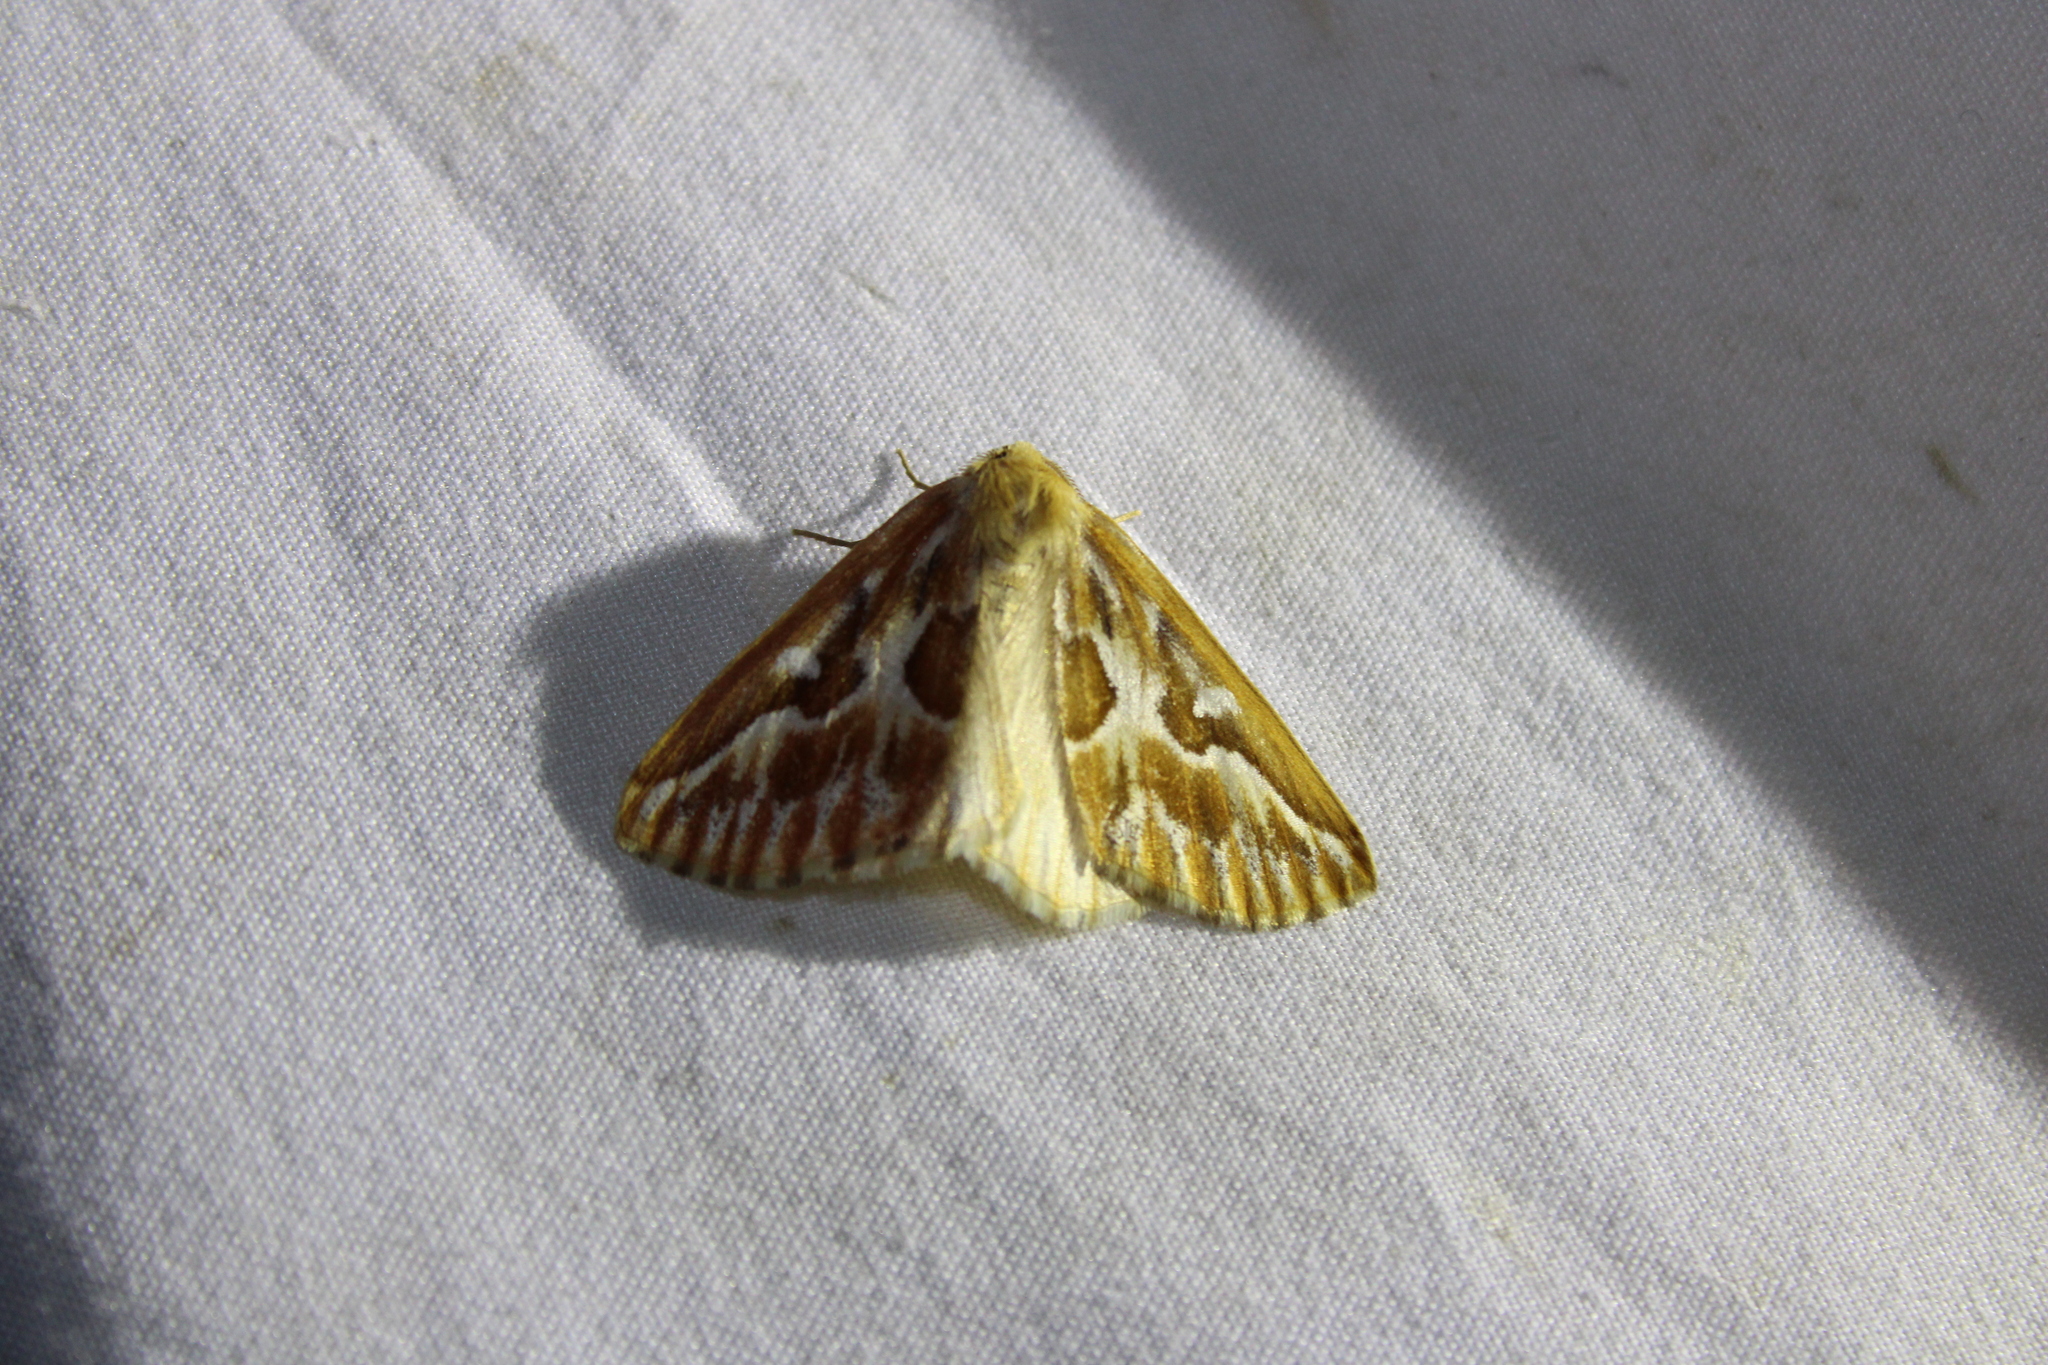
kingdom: Animalia
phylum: Arthropoda
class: Insecta
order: Lepidoptera
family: Geometridae
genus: Caripeta
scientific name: Caripeta piniata
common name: Northern pine looper moth
